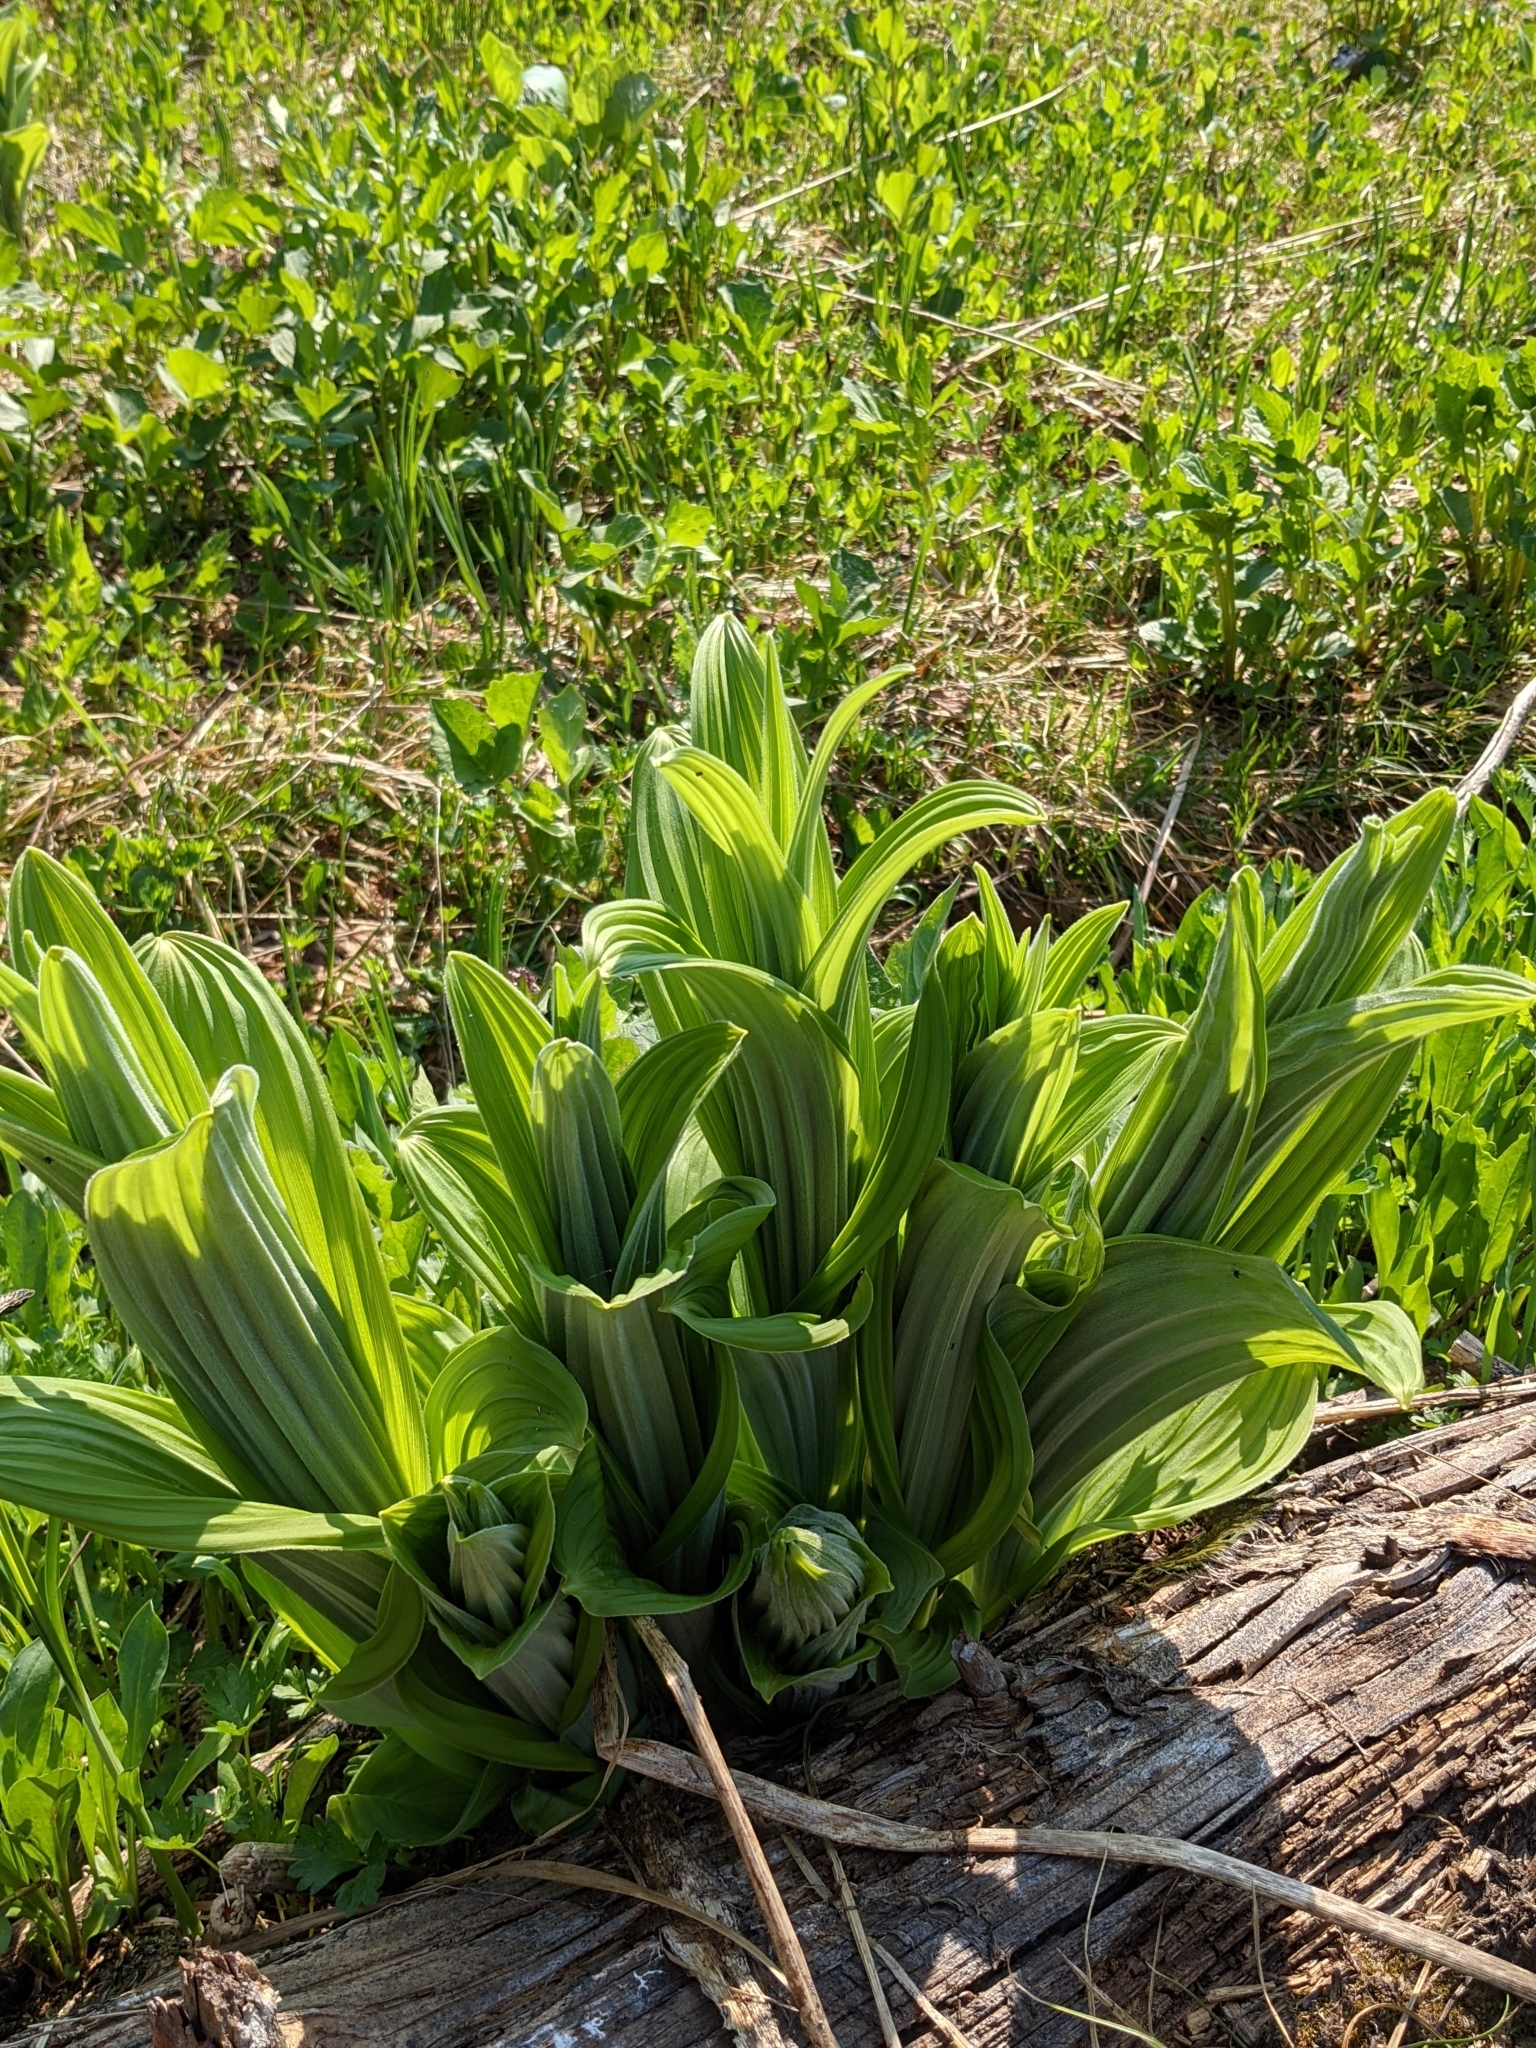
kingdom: Plantae
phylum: Tracheophyta
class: Liliopsida
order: Liliales
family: Melanthiaceae
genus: Veratrum
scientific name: Veratrum viride
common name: American false hellebore
